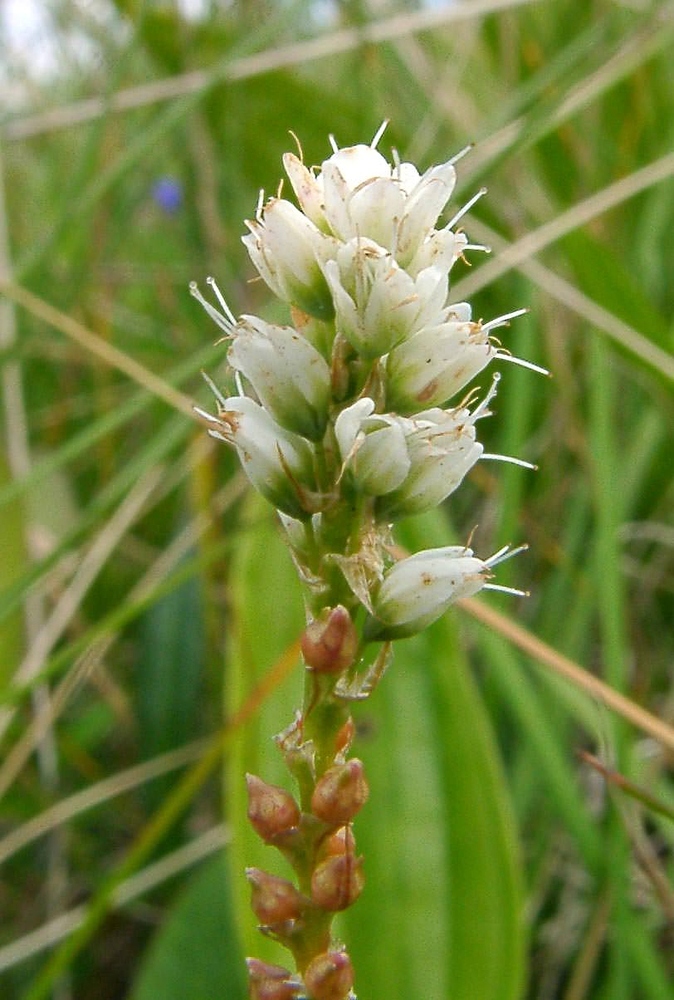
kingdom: Plantae
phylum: Tracheophyta
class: Magnoliopsida
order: Caryophyllales
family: Polygonaceae
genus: Bistorta
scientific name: Bistorta vivipara
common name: Alpine bistort
